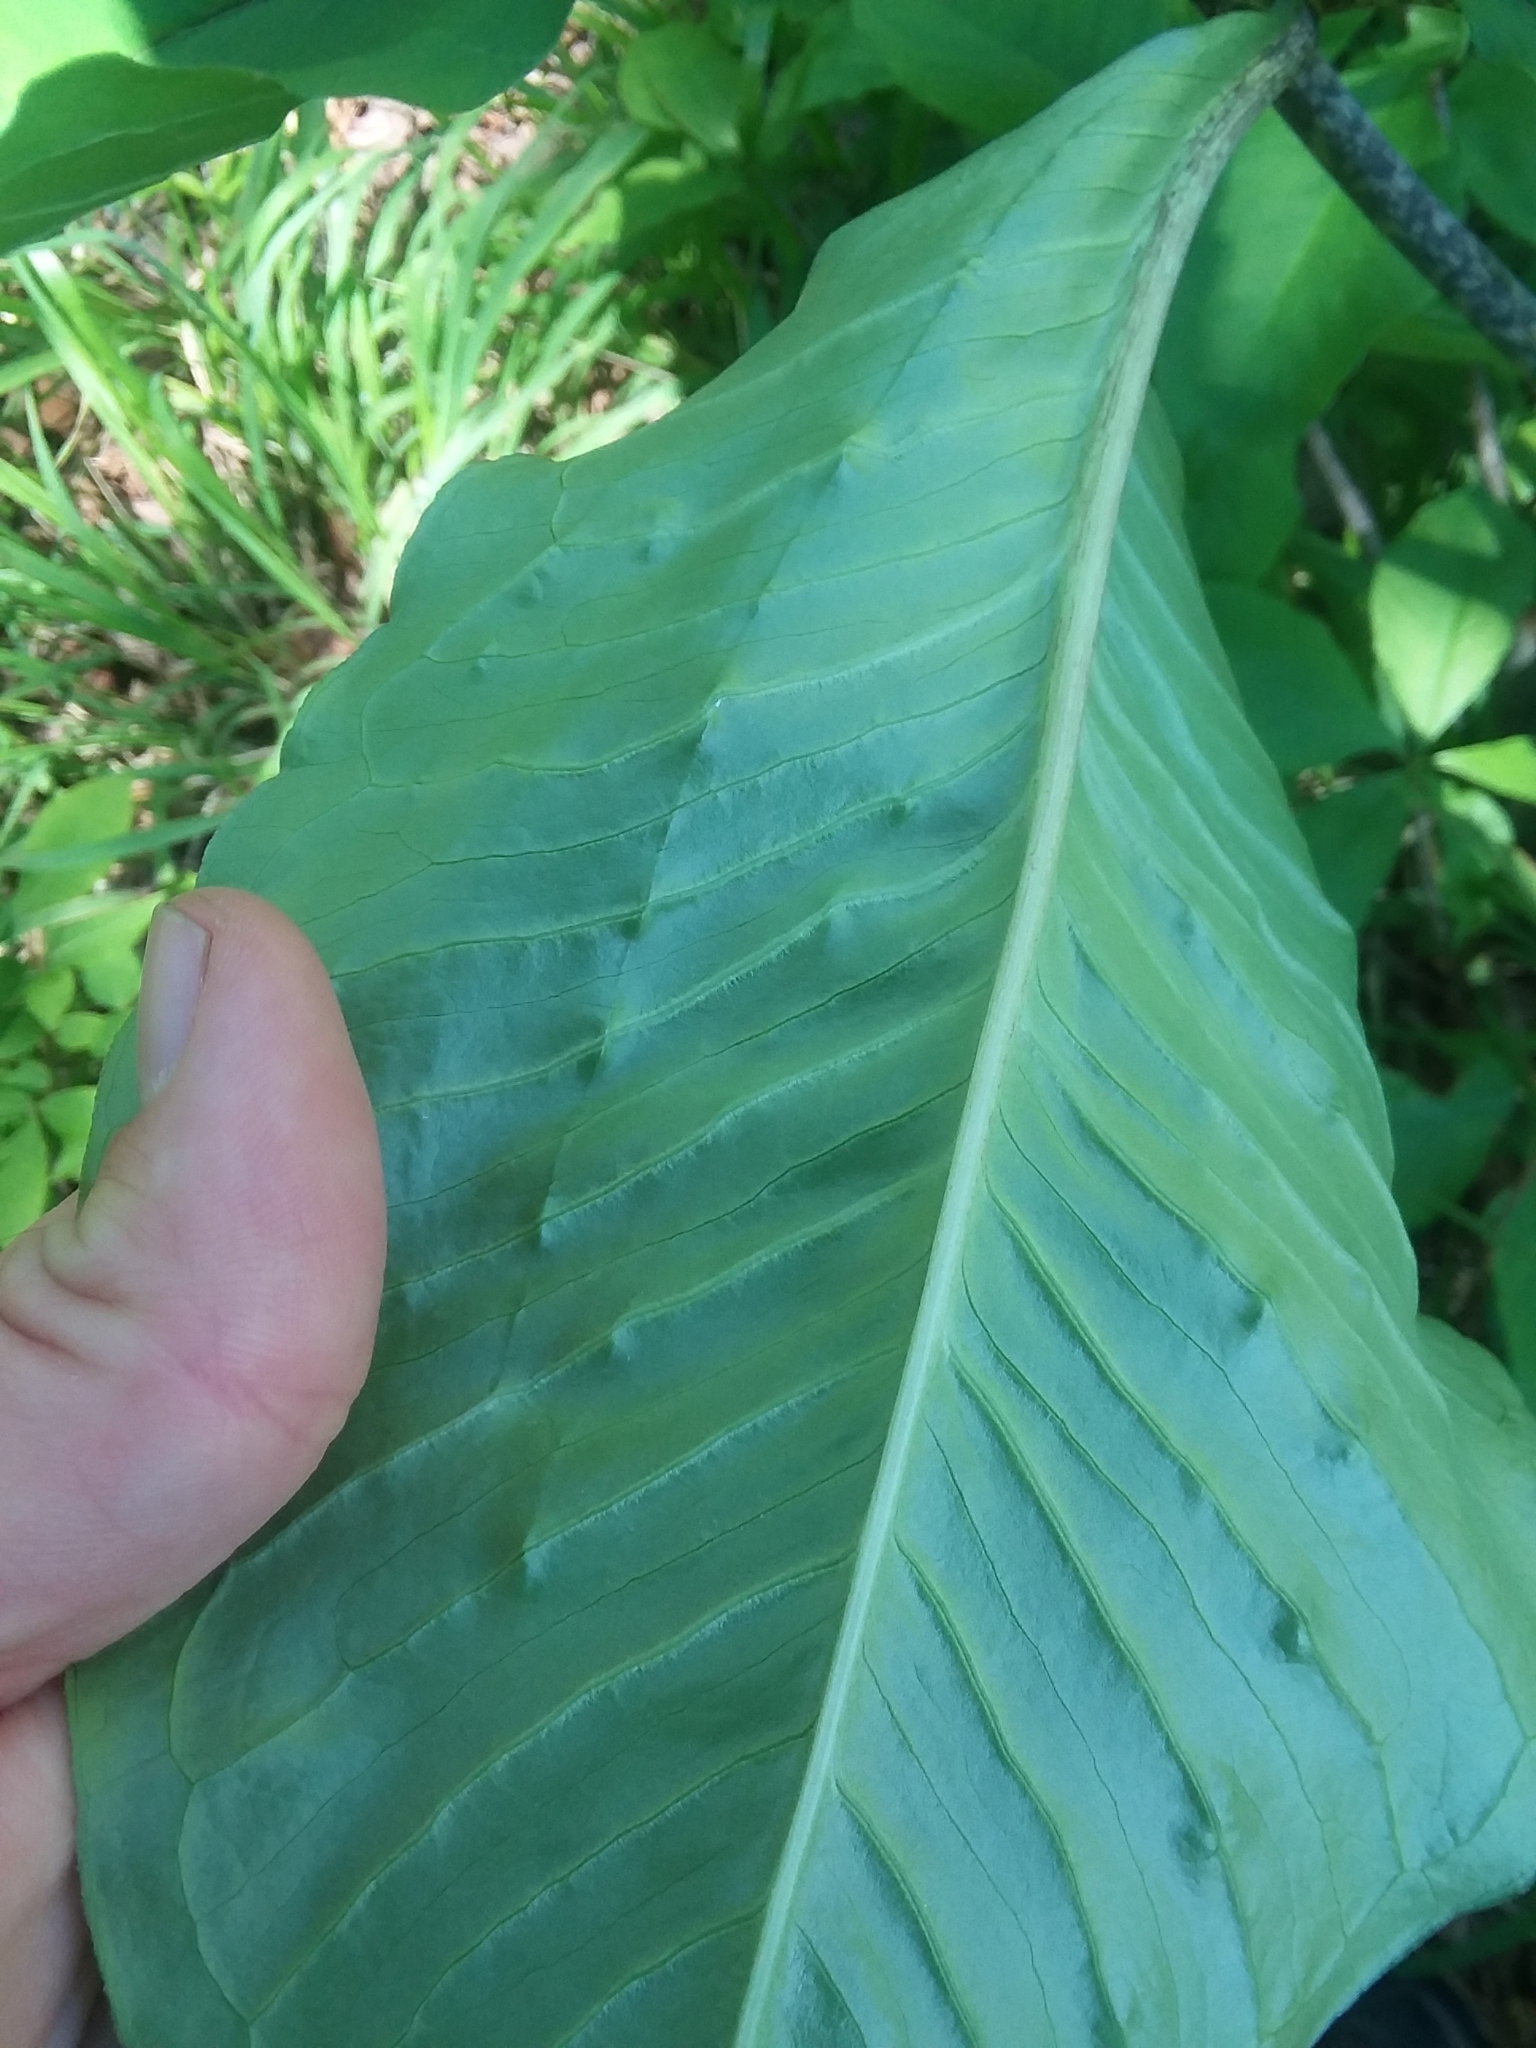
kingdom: Plantae
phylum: Tracheophyta
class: Liliopsida
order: Alismatales
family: Araceae
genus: Arisaema
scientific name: Arisaema quinatum
